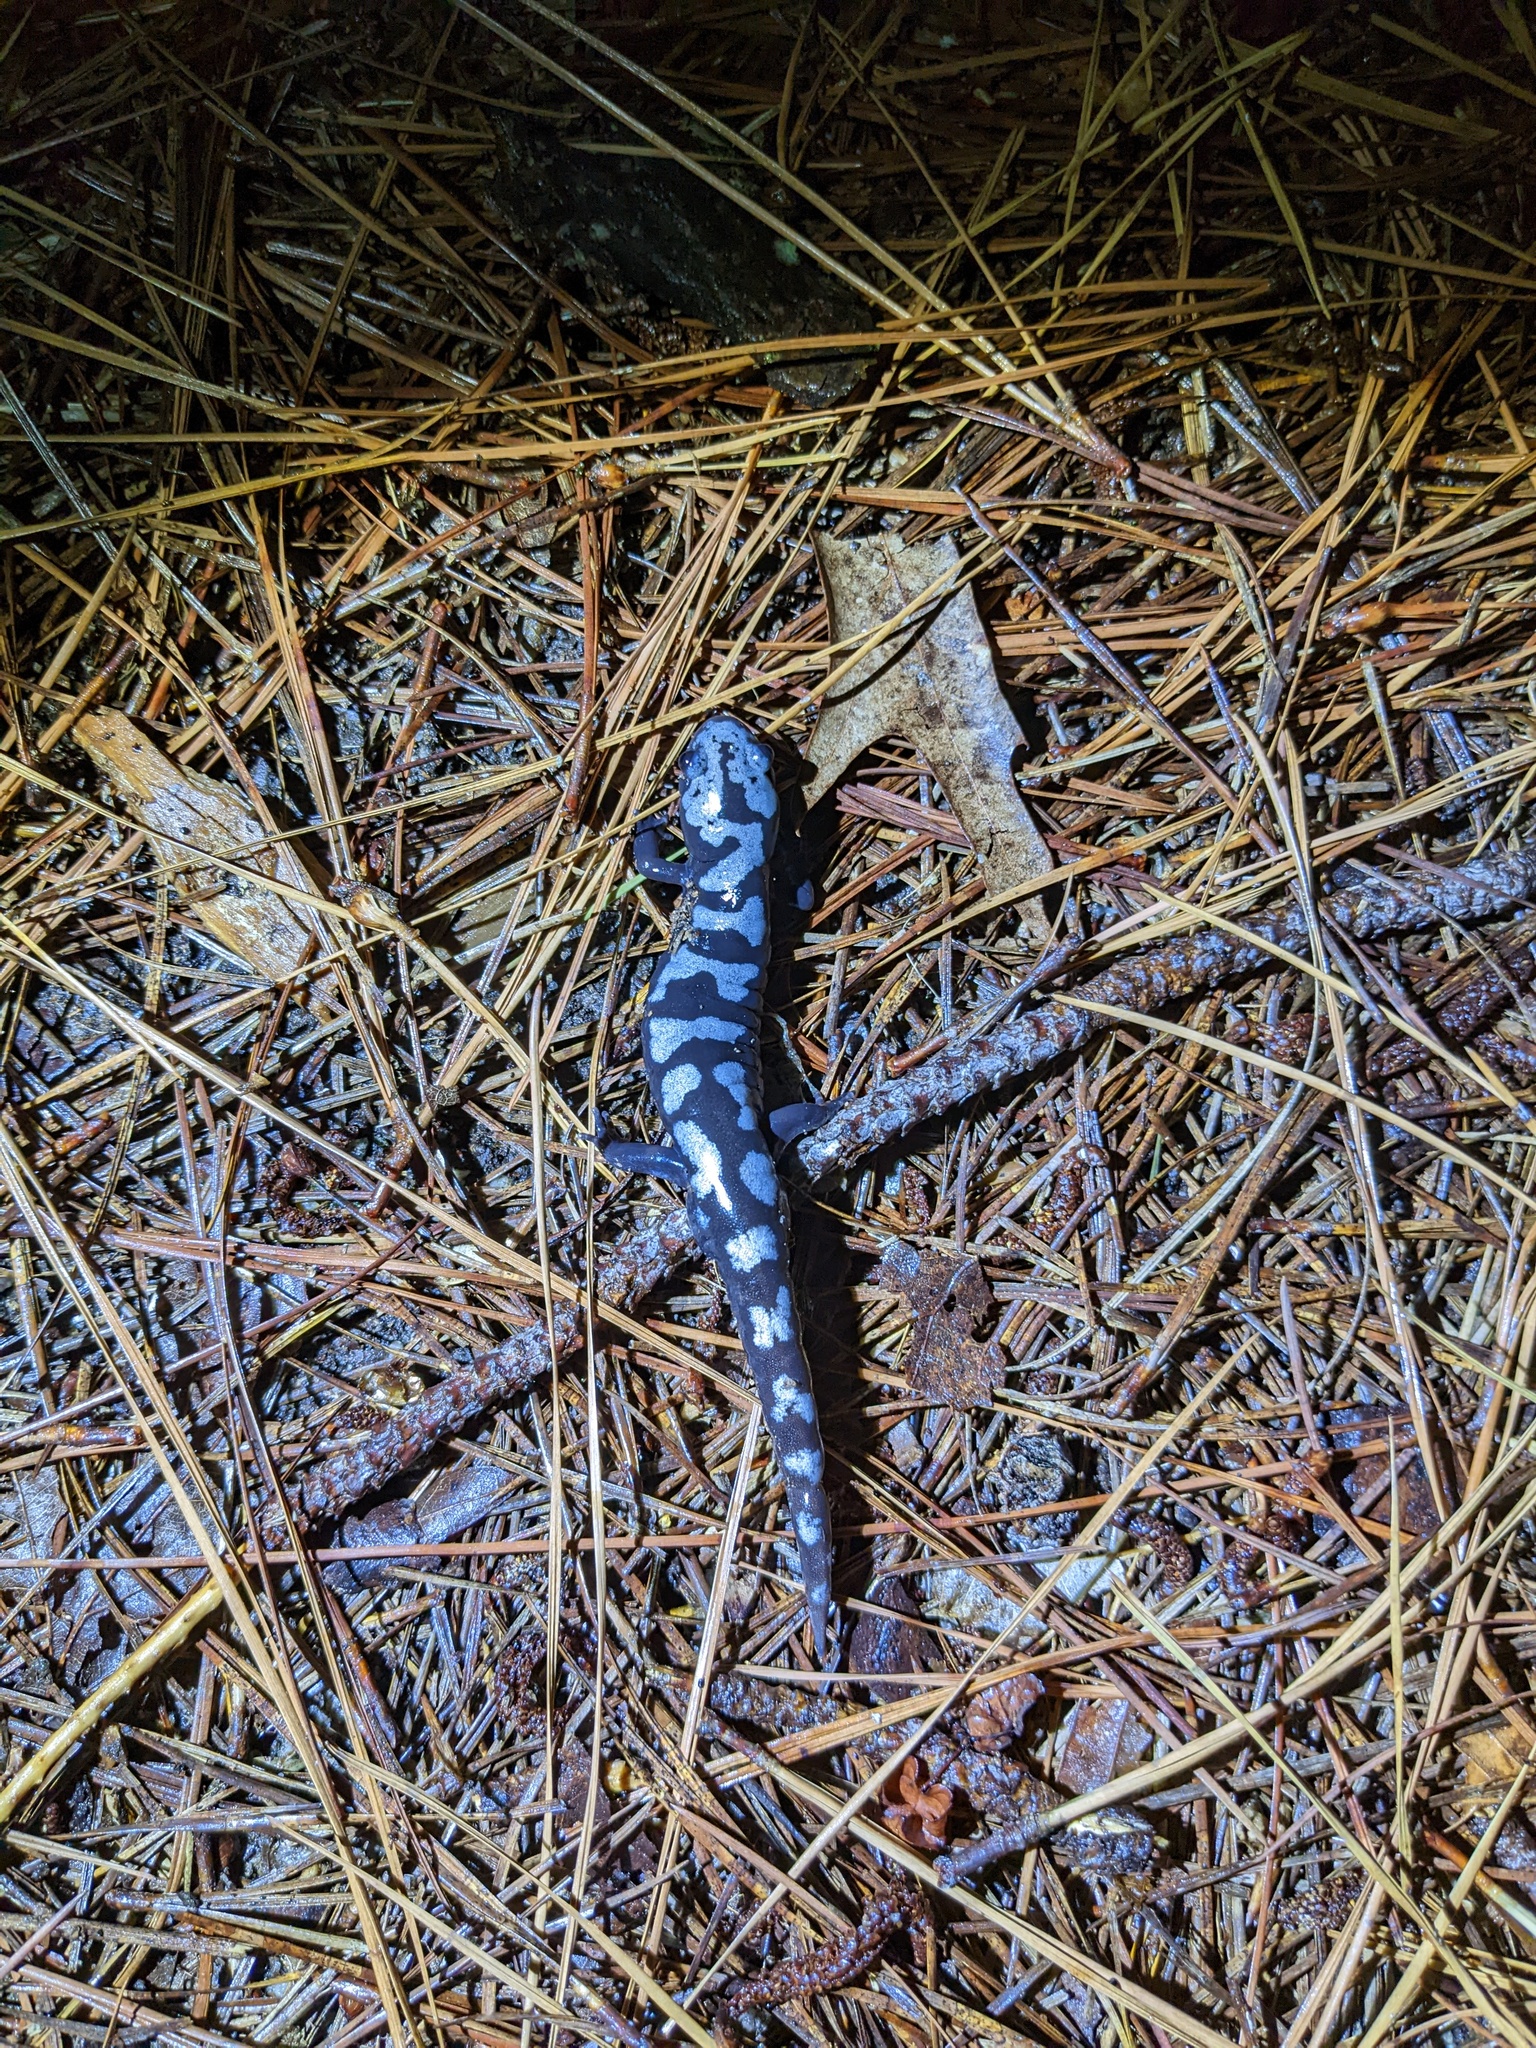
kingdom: Animalia
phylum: Chordata
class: Amphibia
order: Caudata
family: Ambystomatidae
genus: Ambystoma
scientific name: Ambystoma opacum
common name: Marbled salamander
